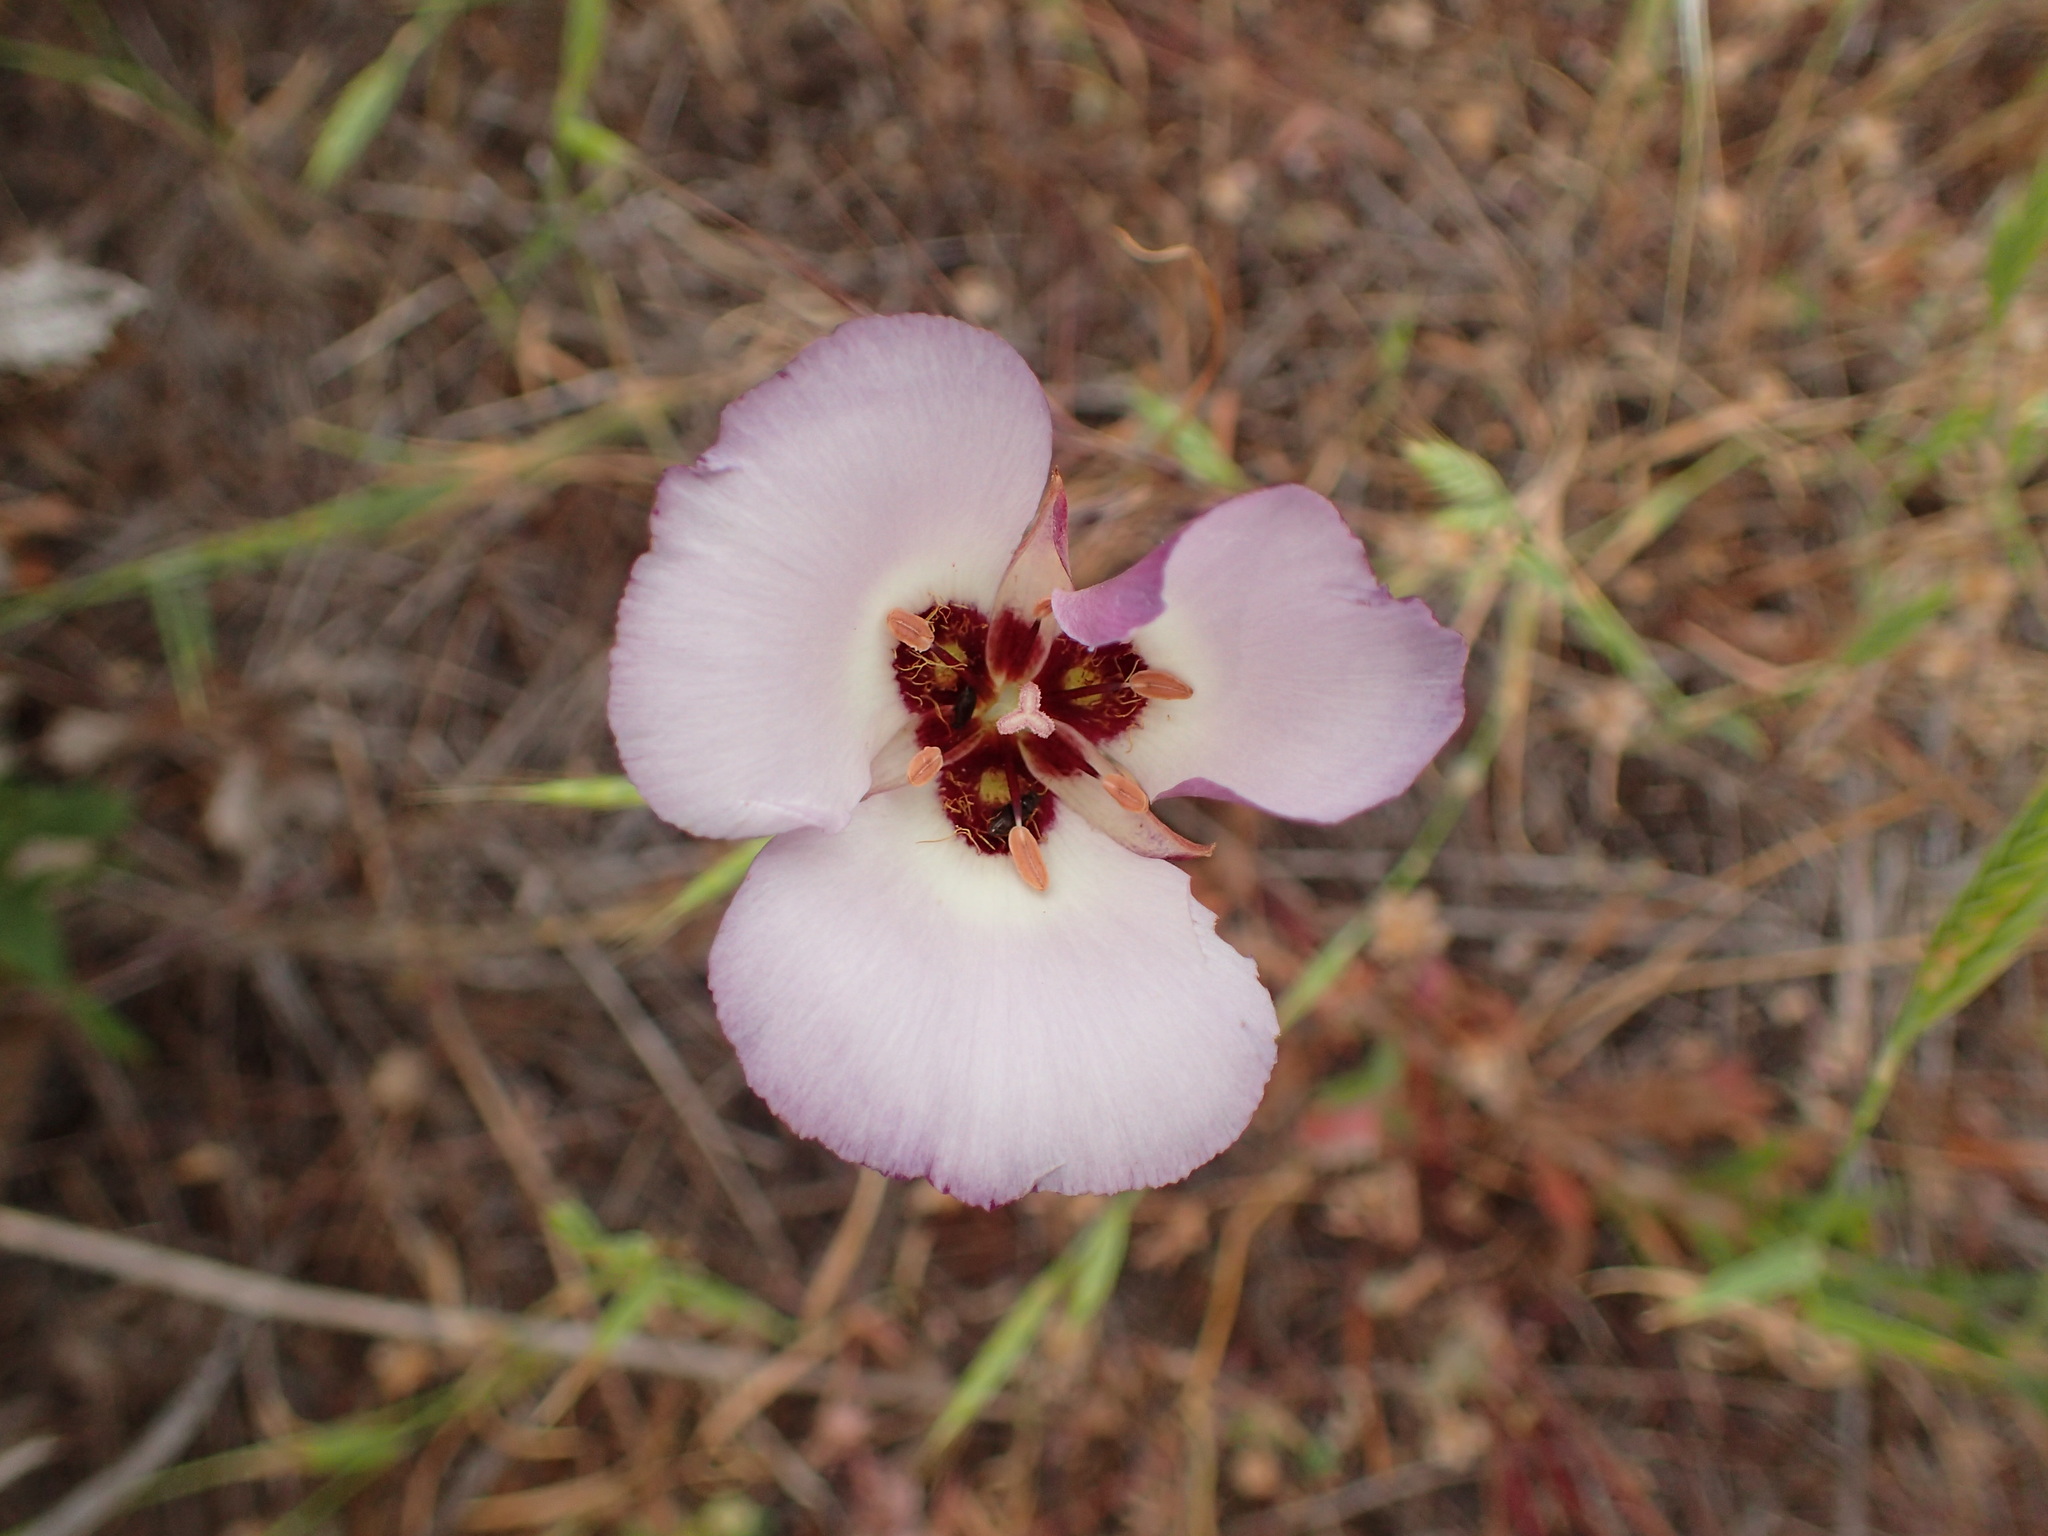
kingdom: Plantae
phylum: Tracheophyta
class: Liliopsida
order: Liliales
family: Liliaceae
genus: Calochortus
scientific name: Calochortus catalinae
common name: Catalina mariposa-lily
